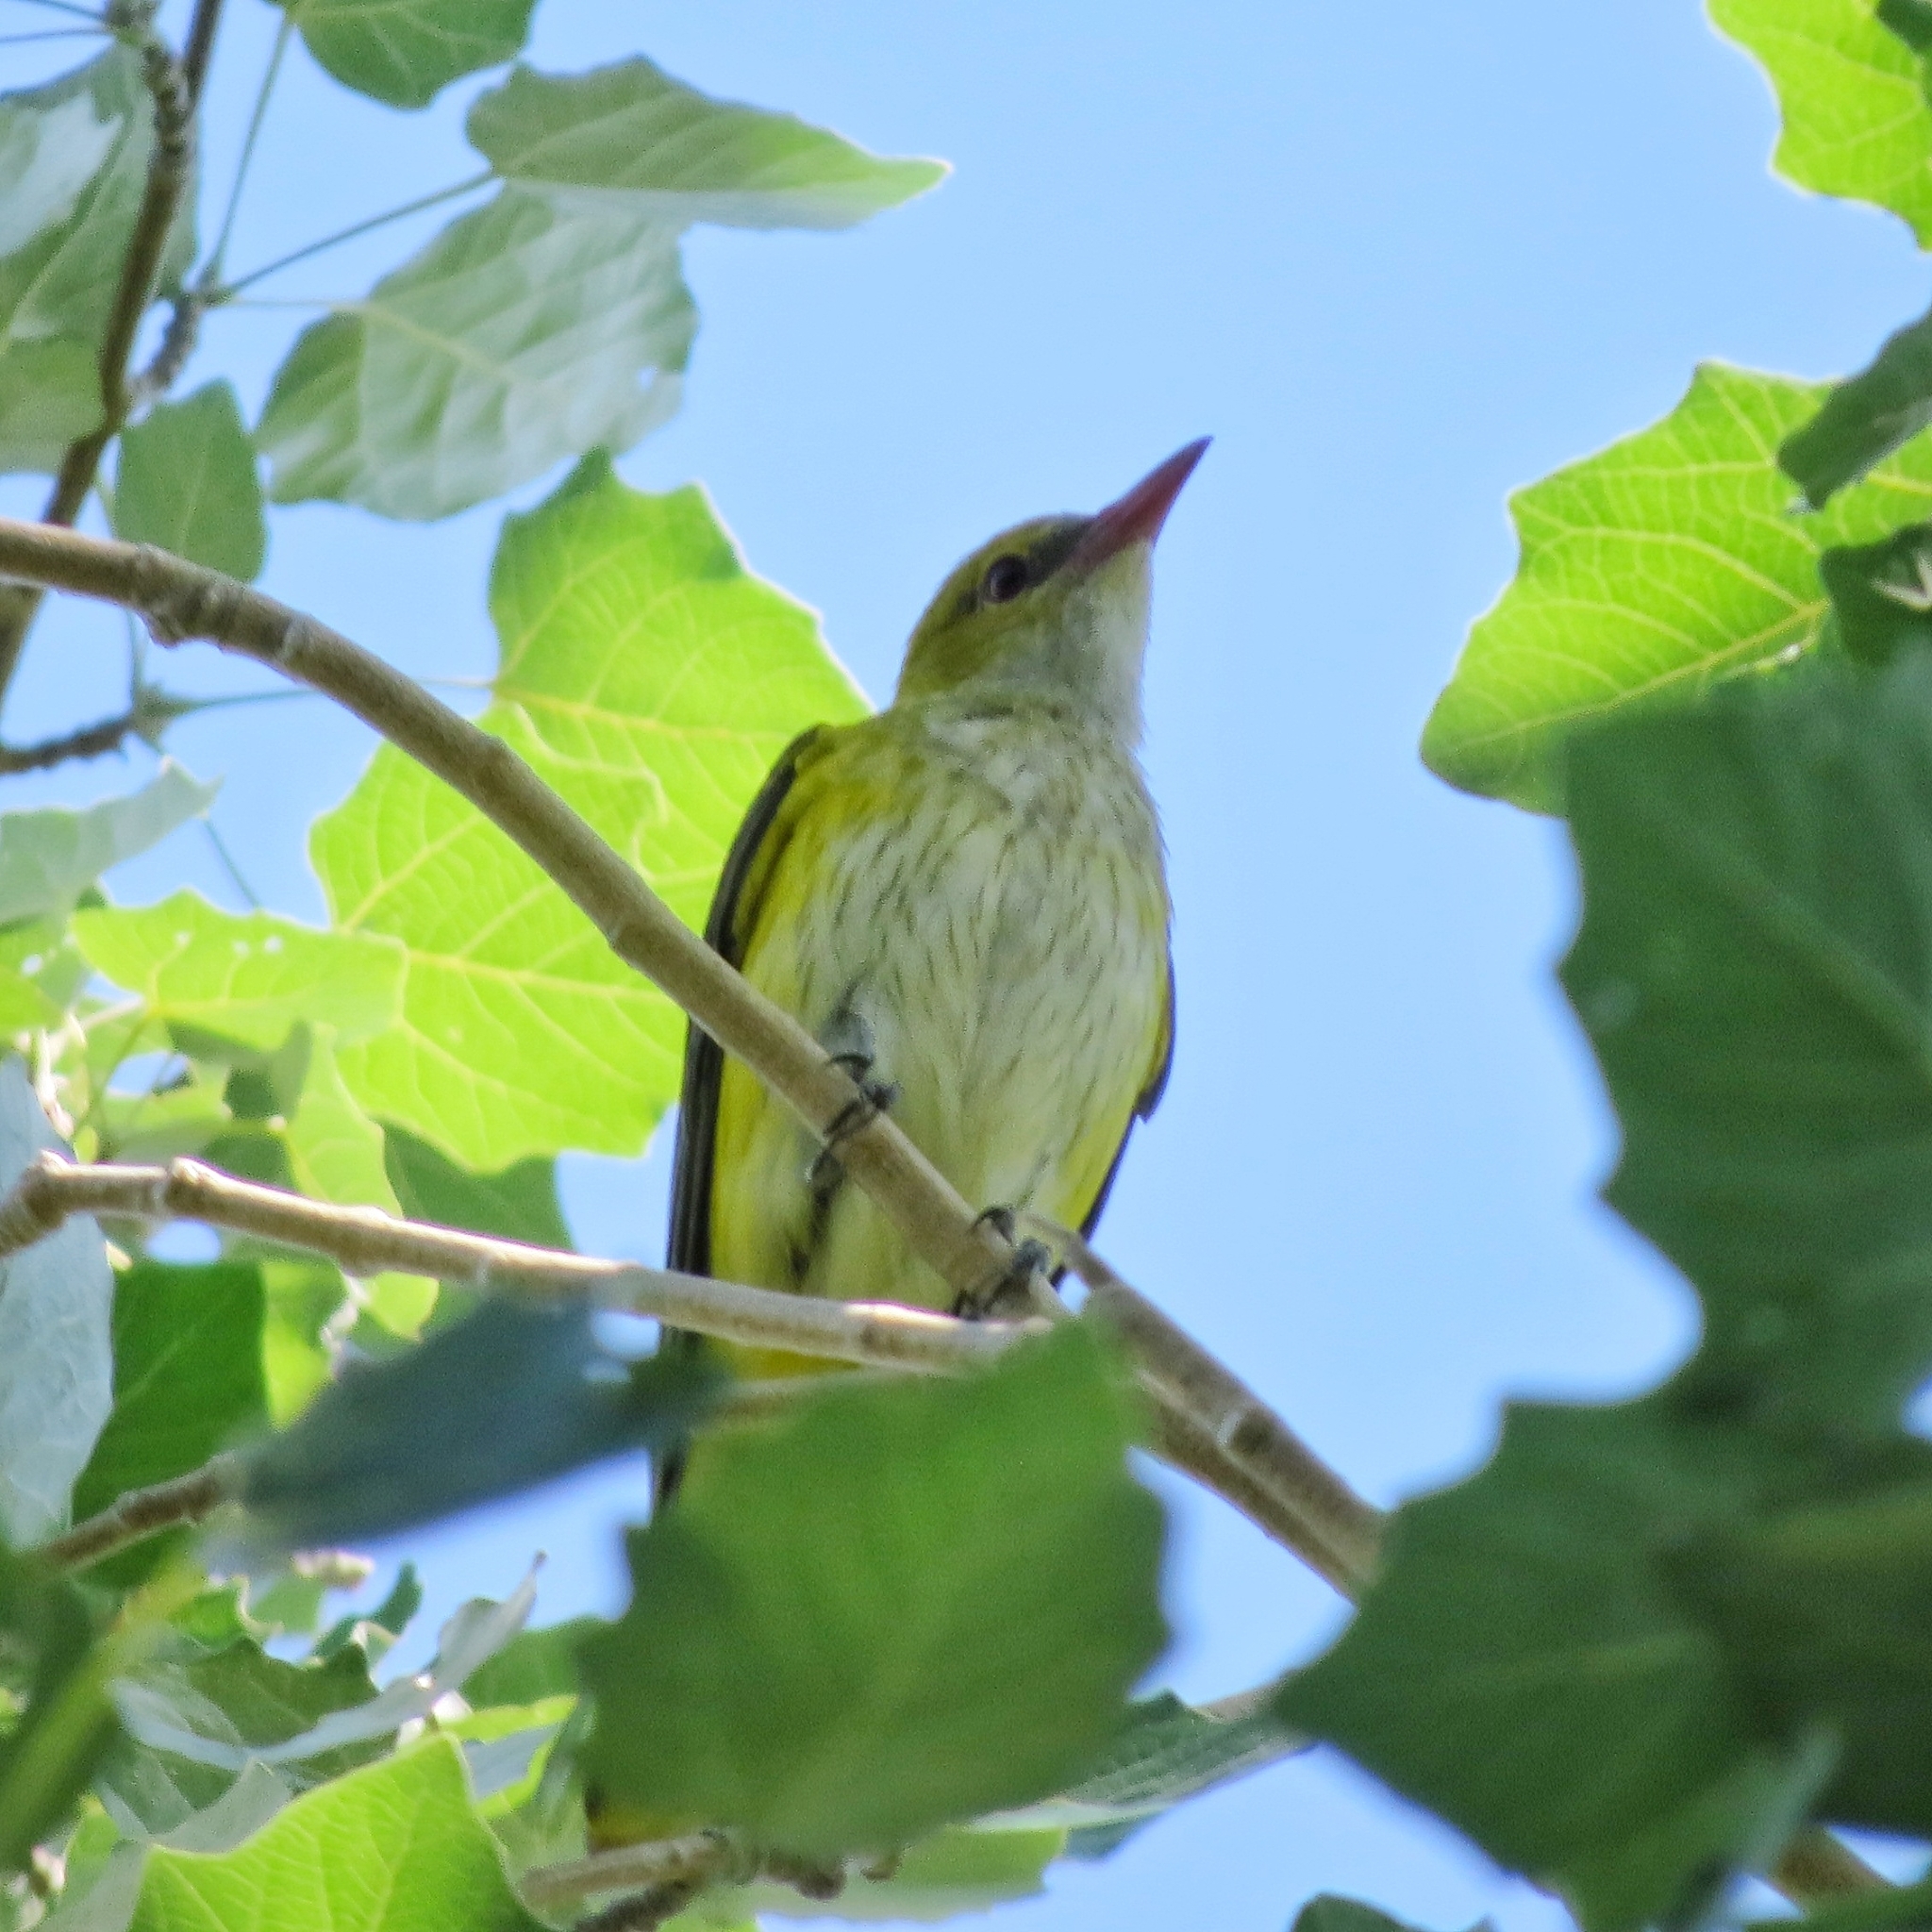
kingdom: Animalia
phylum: Chordata
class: Aves
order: Passeriformes
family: Oriolidae
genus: Oriolus
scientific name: Oriolus oriolus
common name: Eurasian golden oriole
